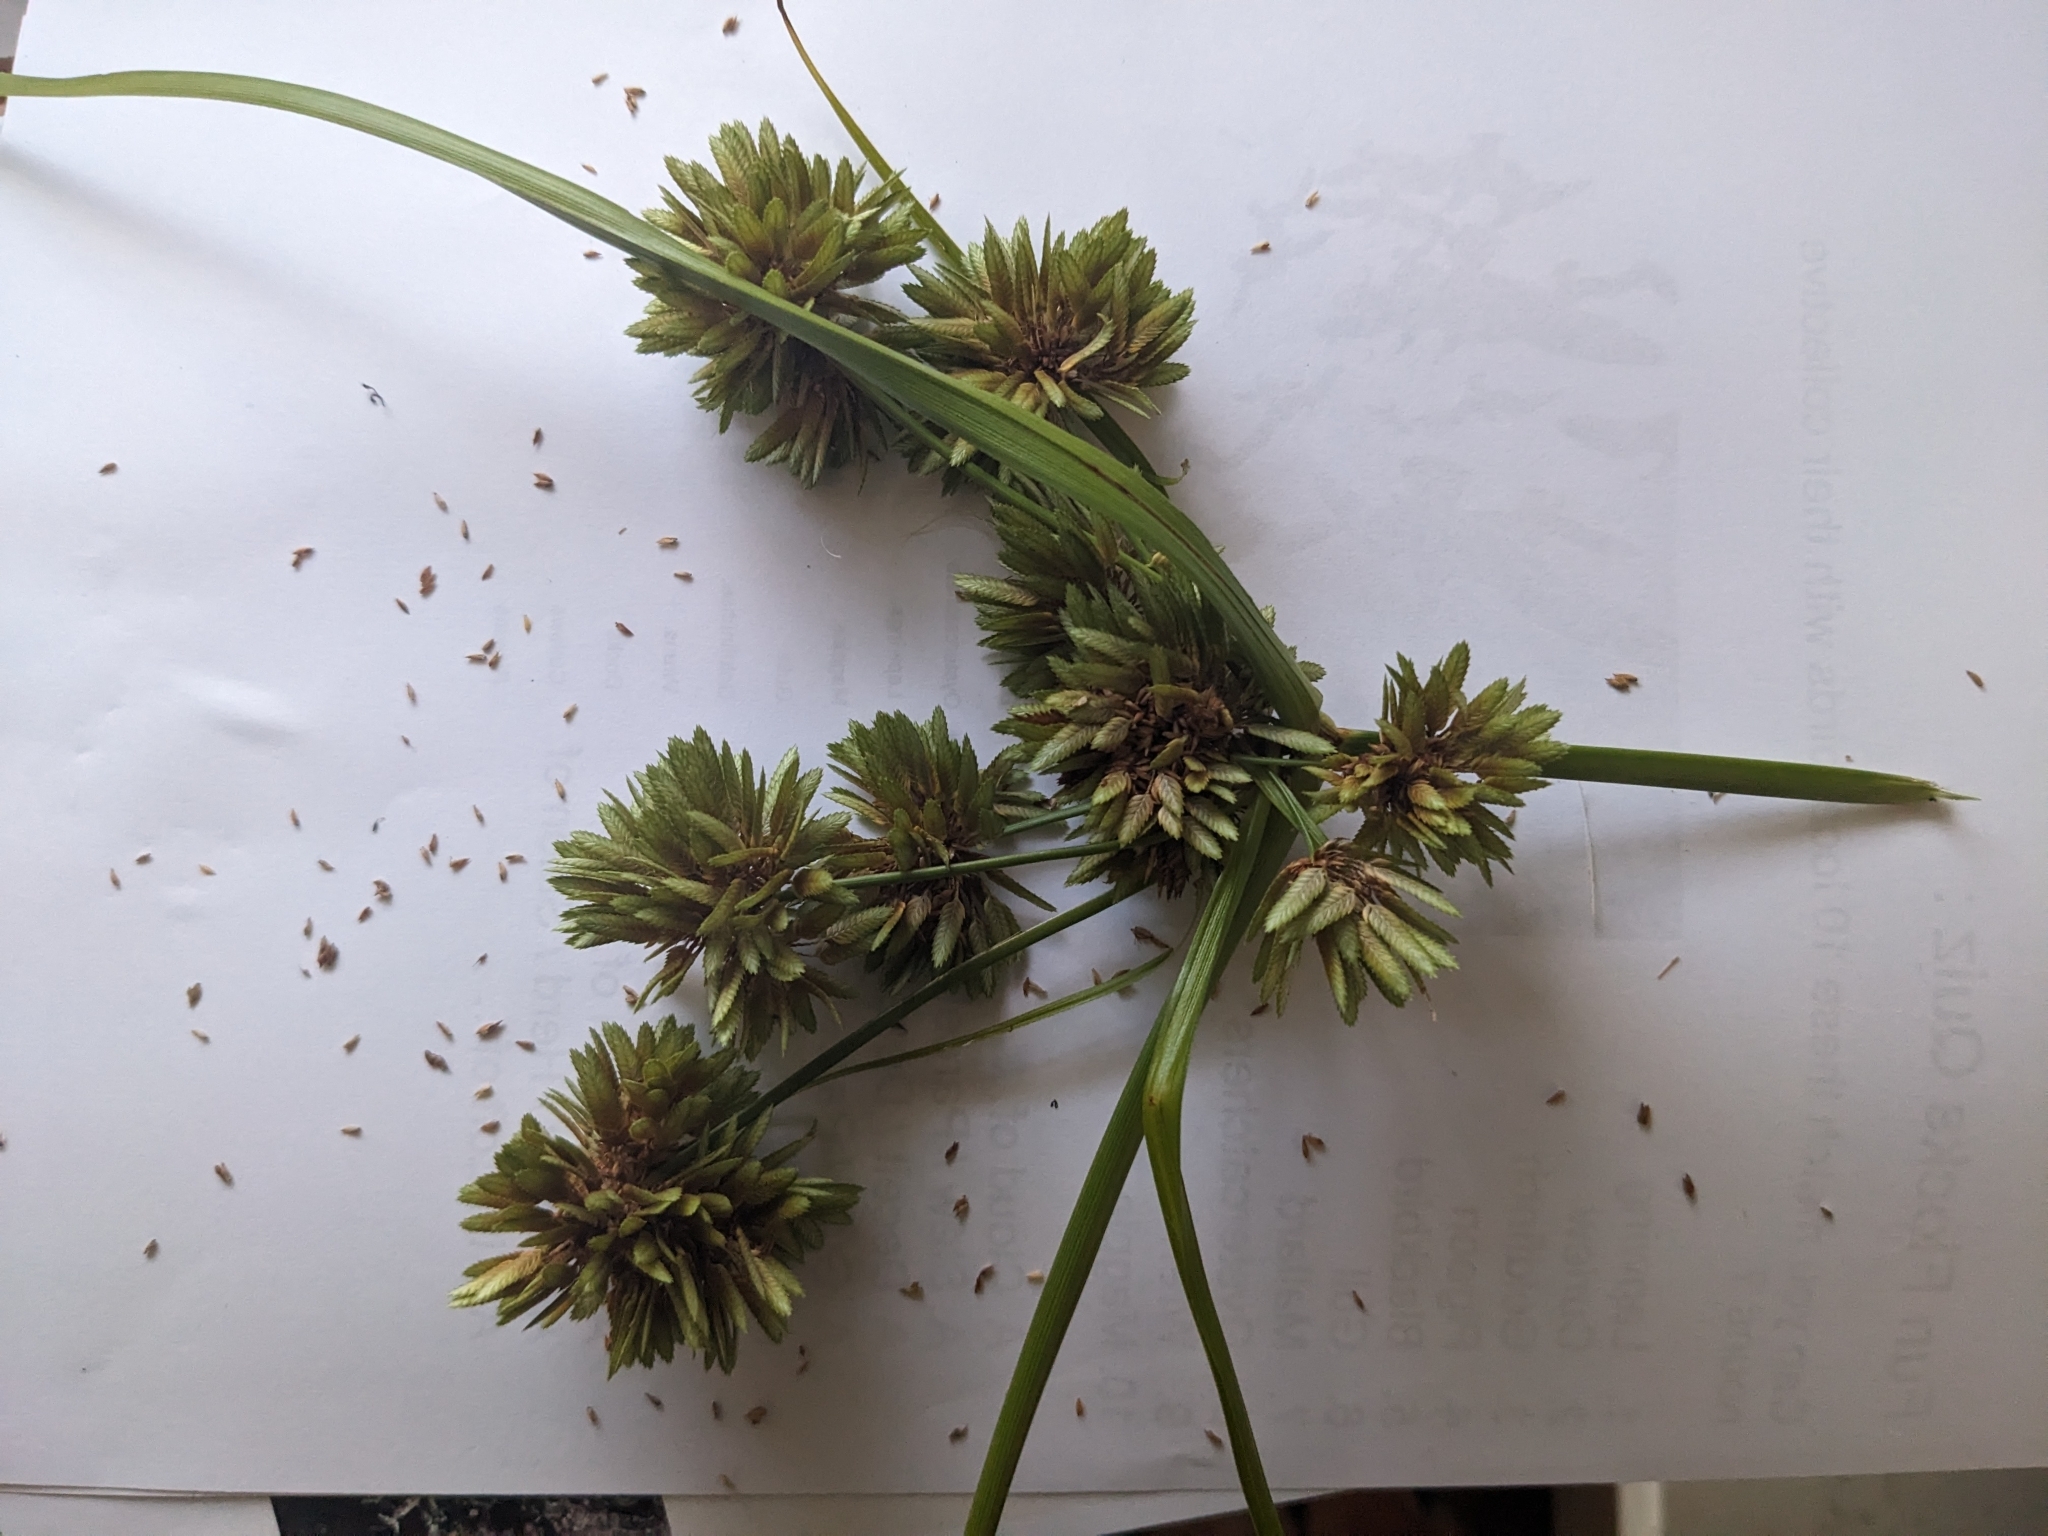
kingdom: Plantae
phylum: Tracheophyta
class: Liliopsida
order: Poales
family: Cyperaceae
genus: Cyperus
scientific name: Cyperus eragrostis
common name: Tall flatsedge
